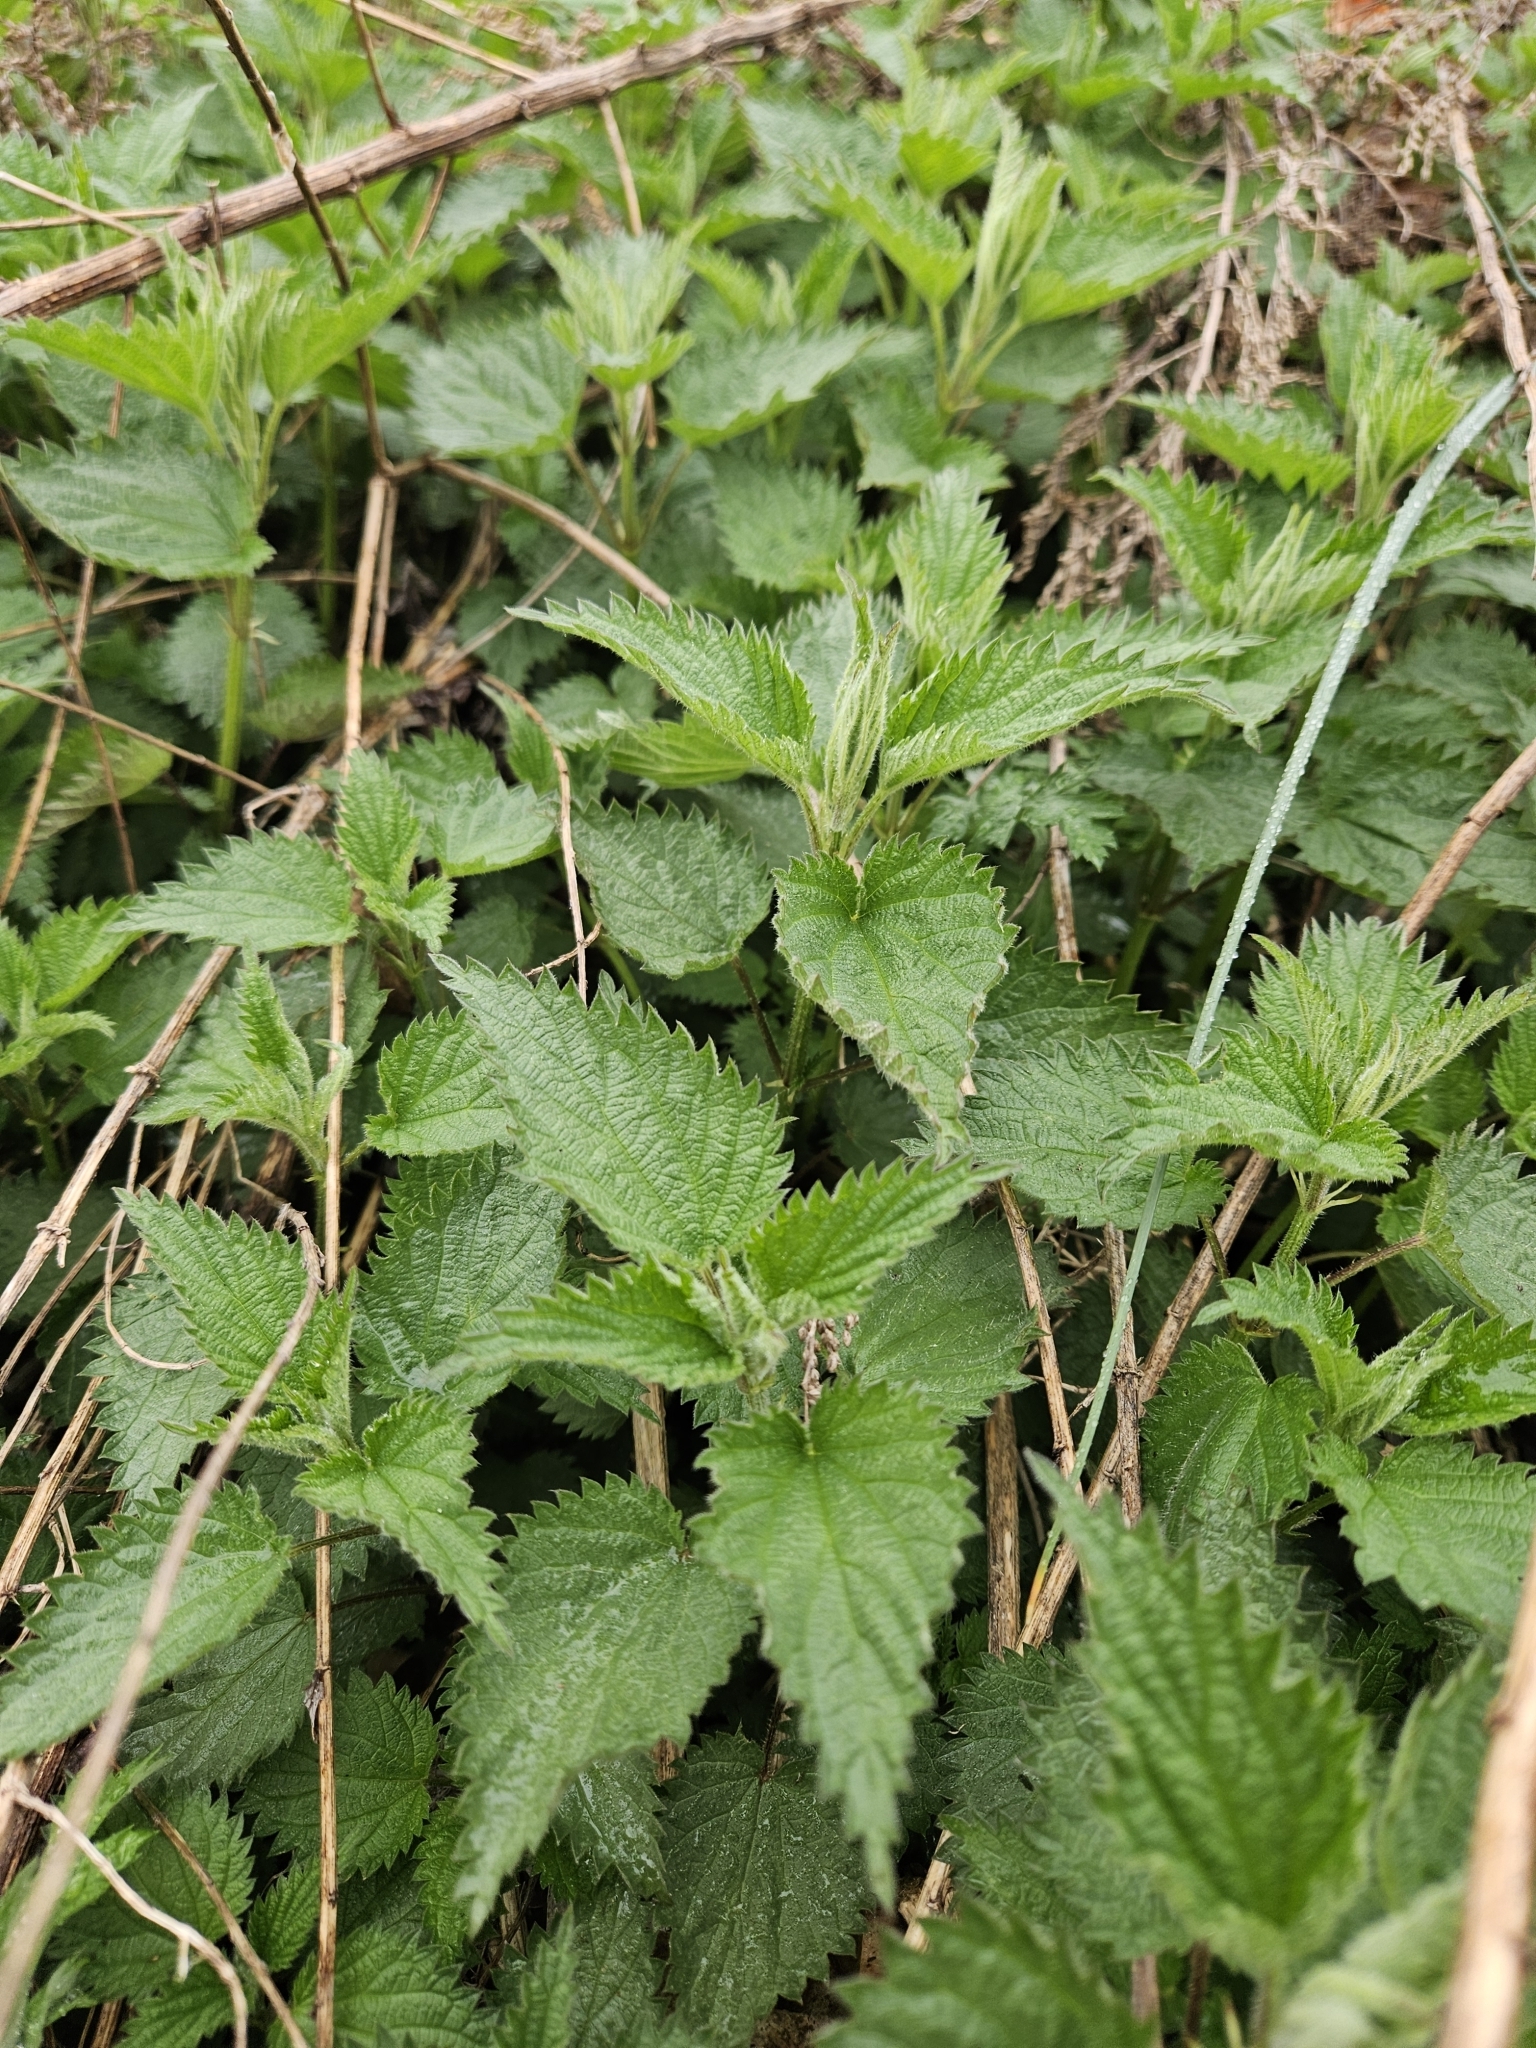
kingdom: Plantae
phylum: Tracheophyta
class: Magnoliopsida
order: Rosales
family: Urticaceae
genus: Urtica
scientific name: Urtica dioica
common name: Common nettle
